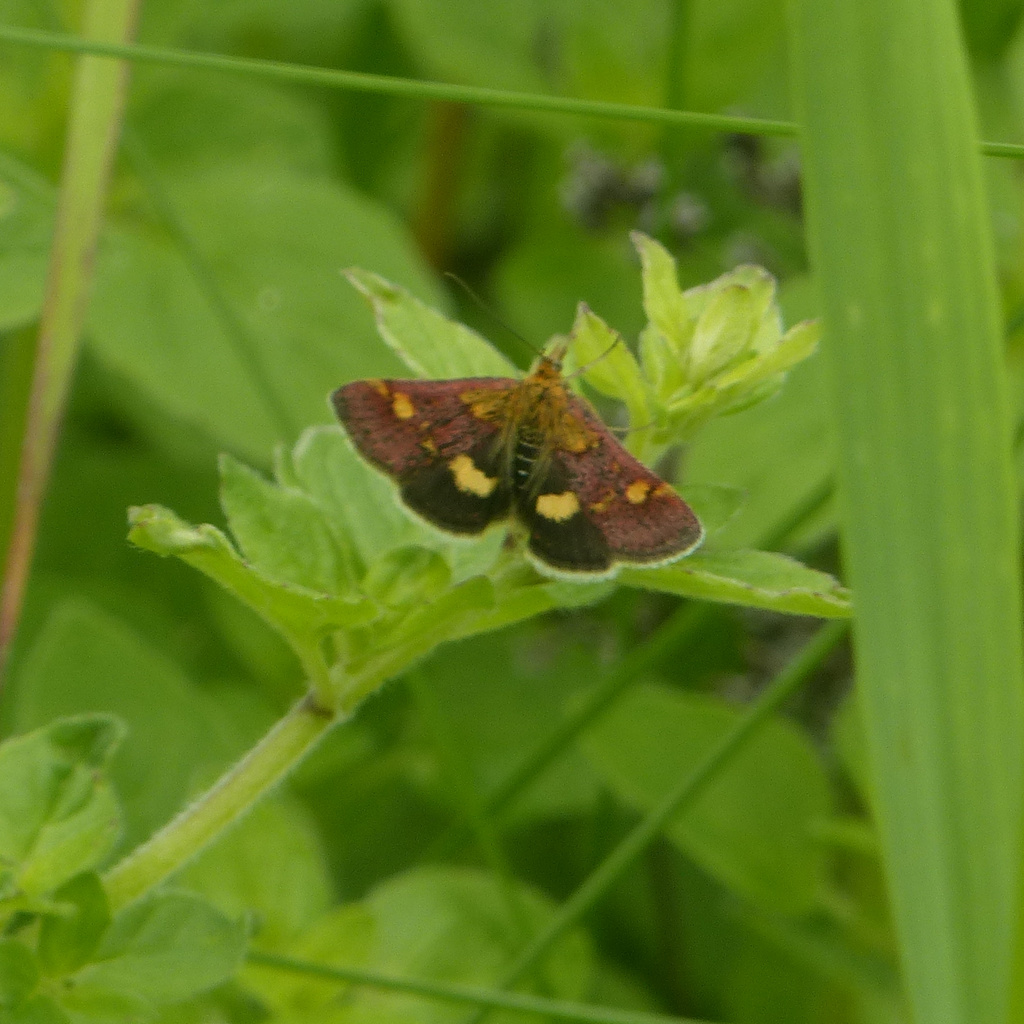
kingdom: Animalia
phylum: Arthropoda
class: Insecta
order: Lepidoptera
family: Crambidae
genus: Pyrausta
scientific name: Pyrausta aurata
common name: Small purple & gold
